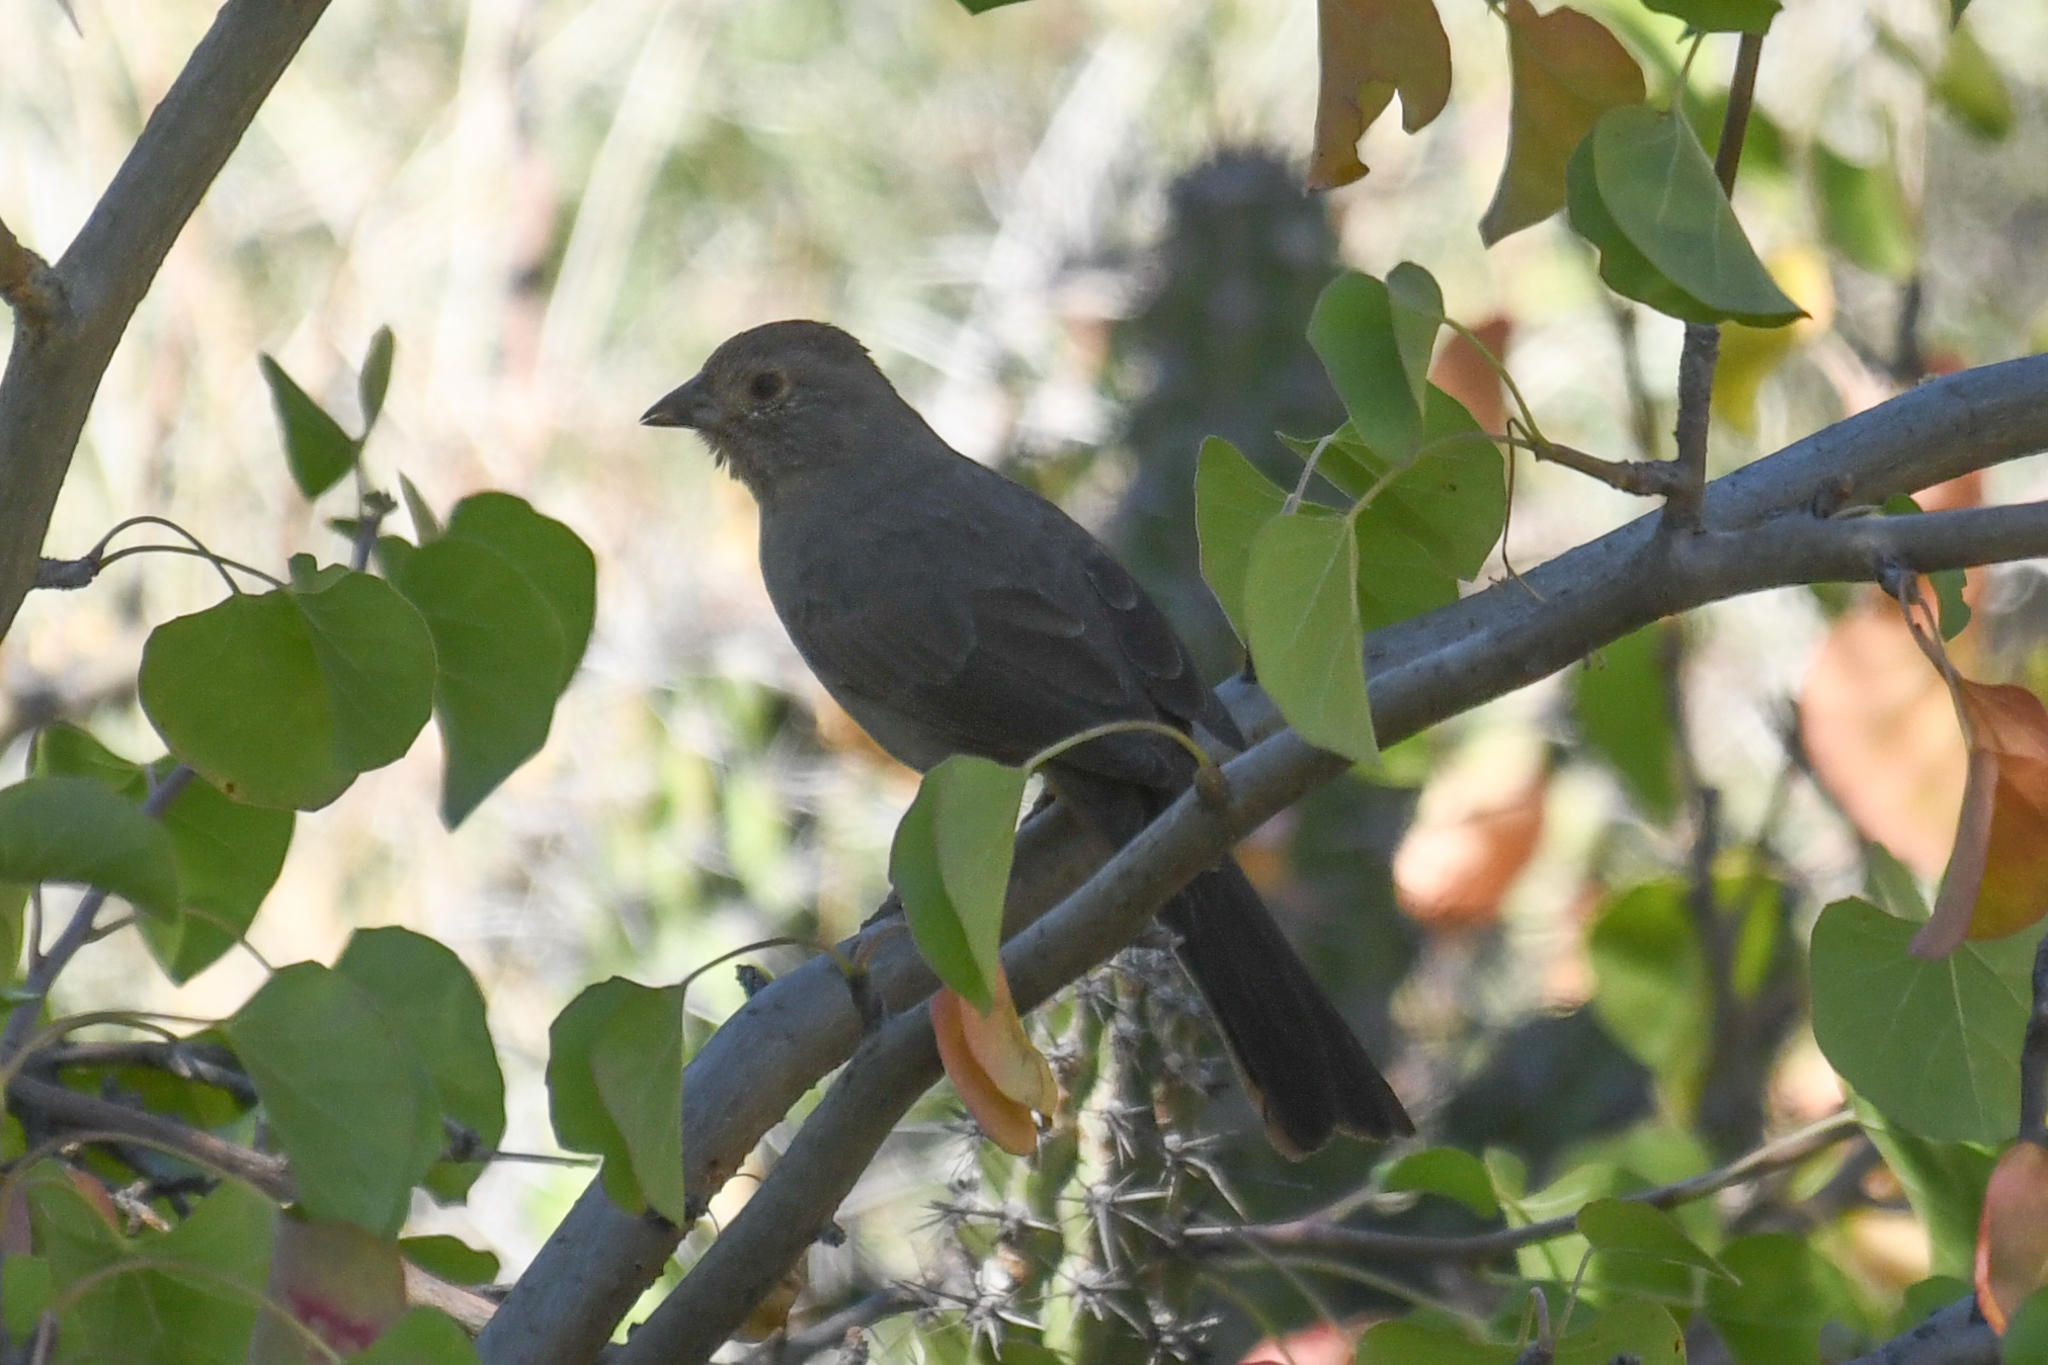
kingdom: Animalia
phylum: Chordata
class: Aves
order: Passeriformes
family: Passerellidae
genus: Melozone
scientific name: Melozone crissalis
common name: California towhee
